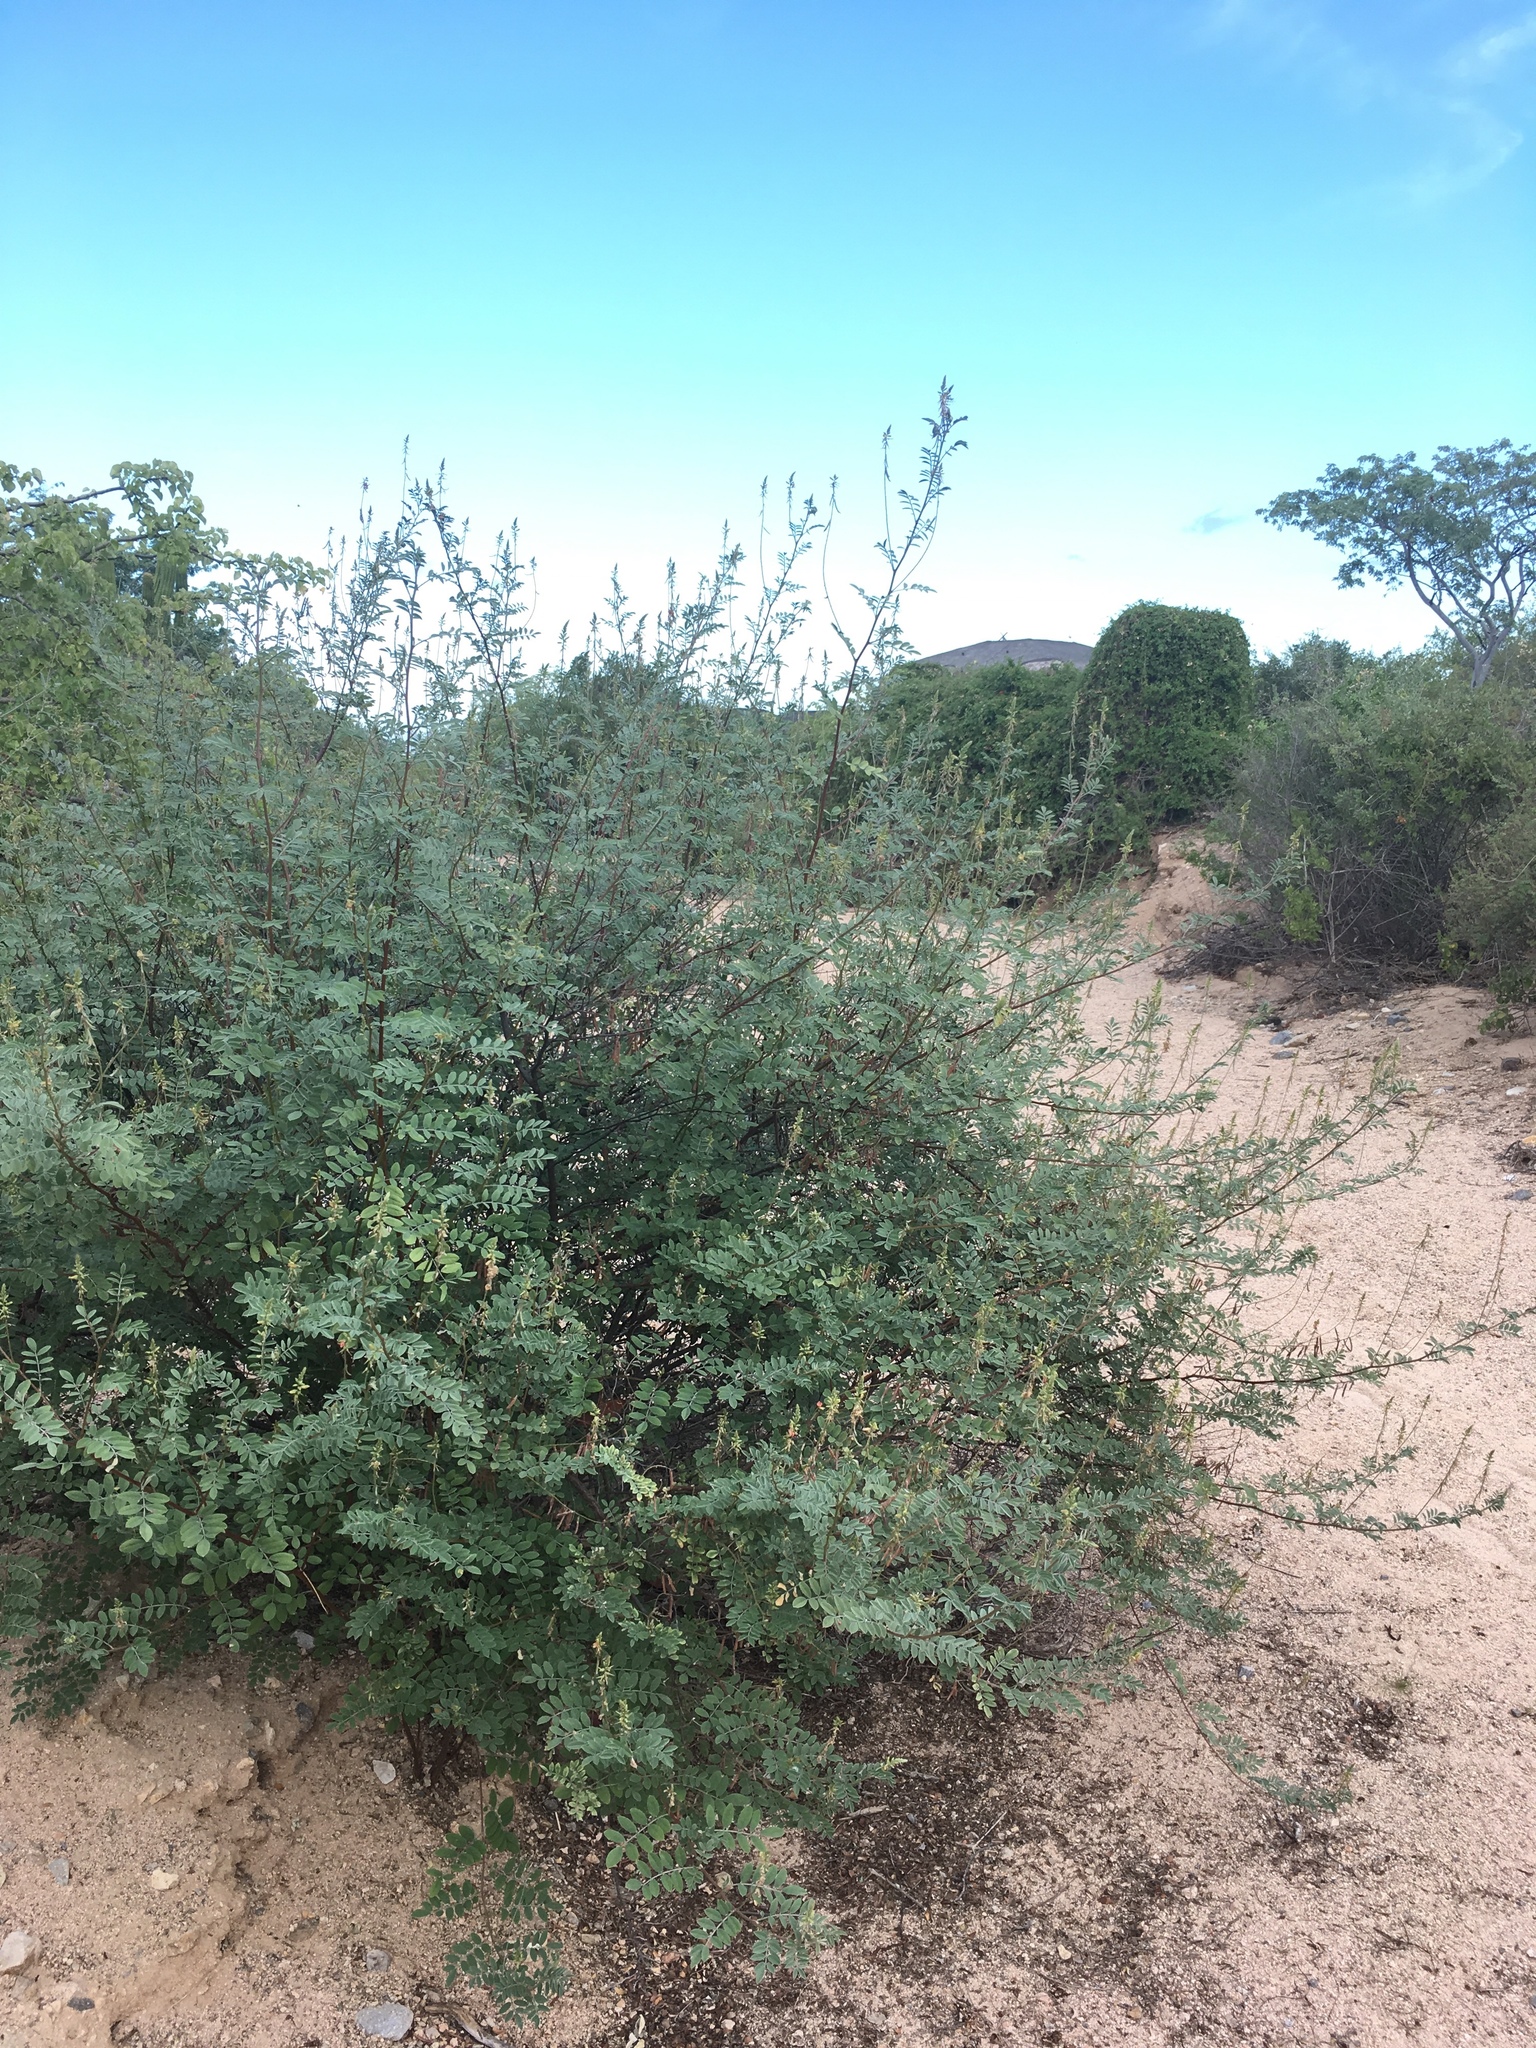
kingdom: Plantae
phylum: Tracheophyta
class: Magnoliopsida
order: Fabales
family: Fabaceae
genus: Indigofera
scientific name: Indigofera fruticosa
